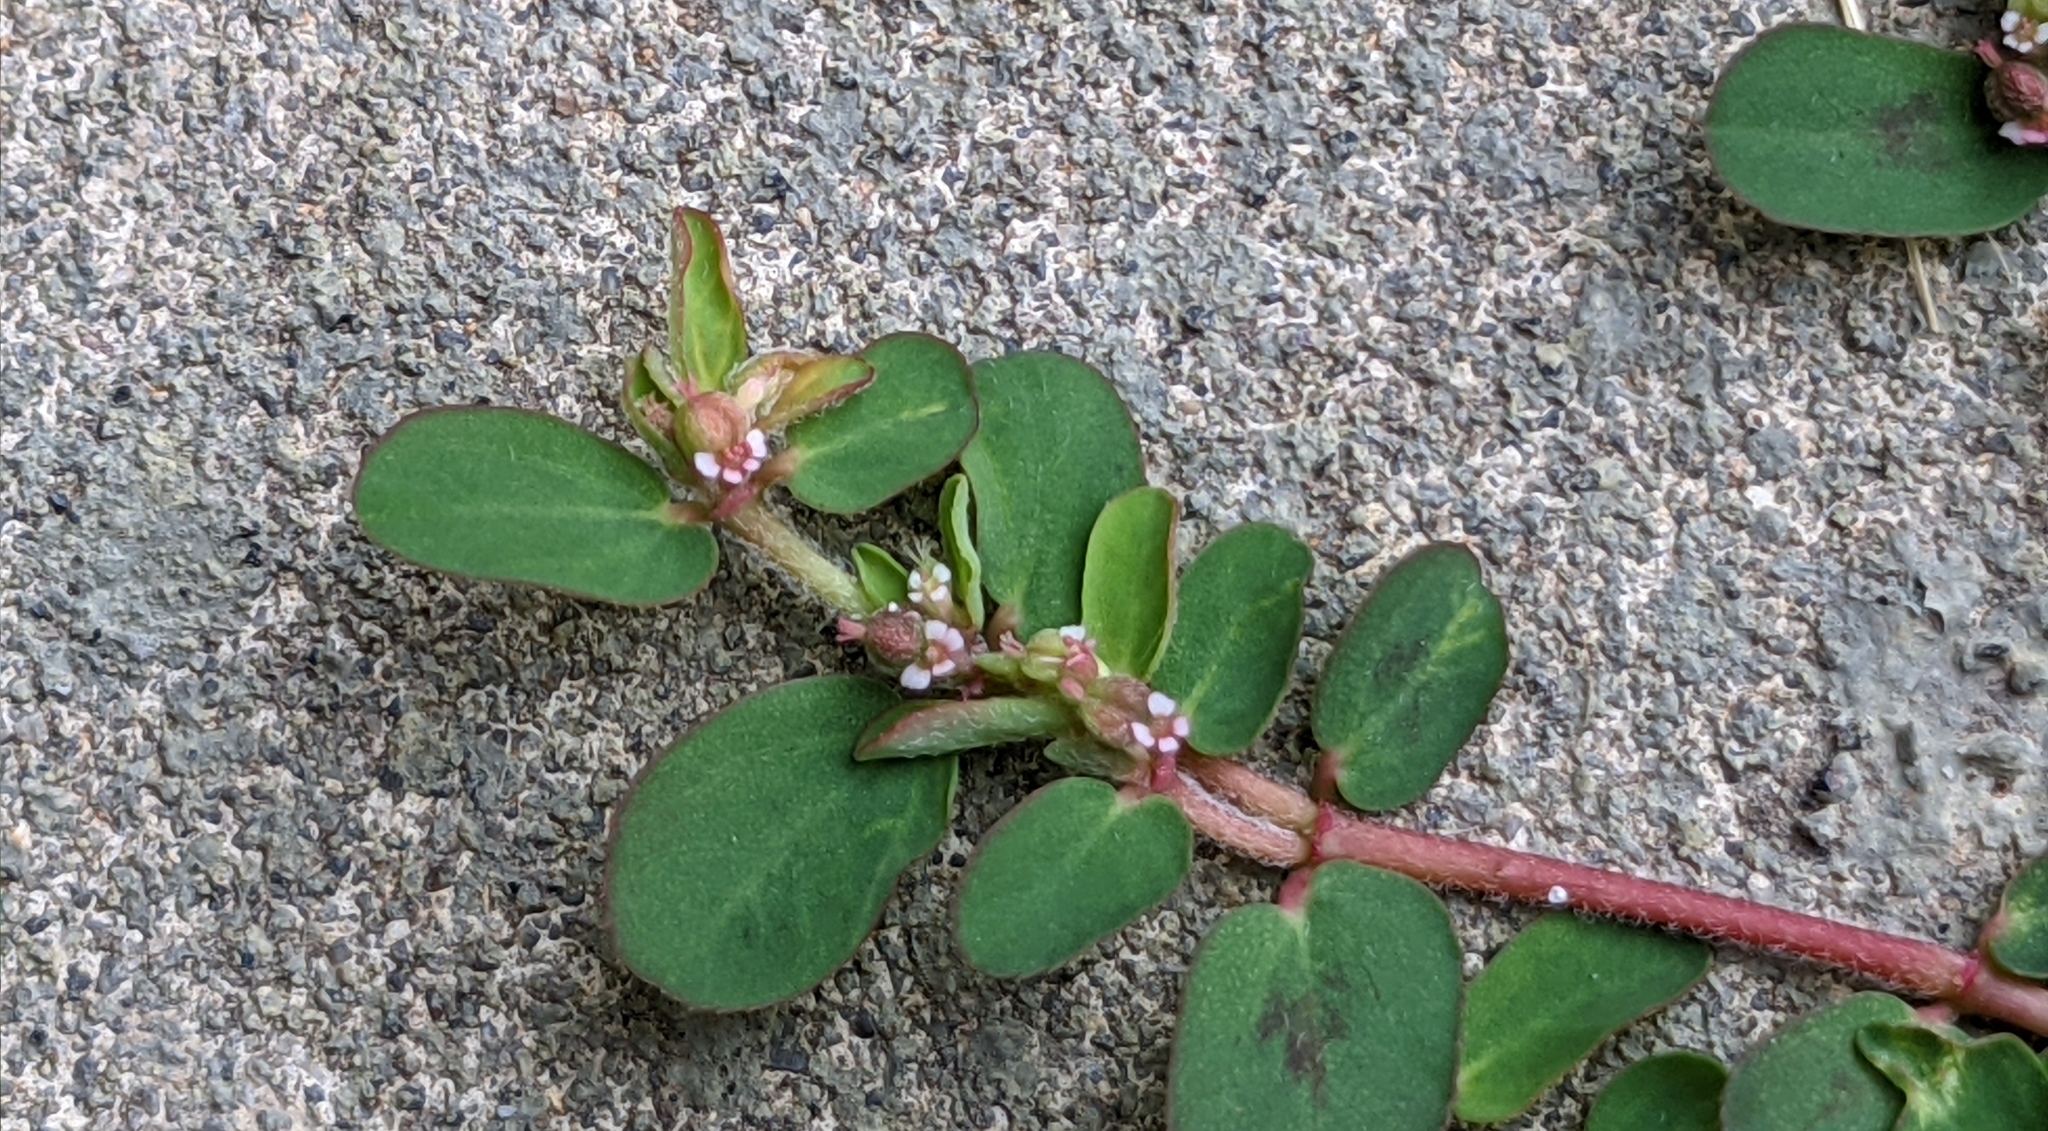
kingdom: Plantae
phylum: Tracheophyta
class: Magnoliopsida
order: Malpighiales
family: Euphorbiaceae
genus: Euphorbia
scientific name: Euphorbia humistrata
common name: Hairy spreading spurge
